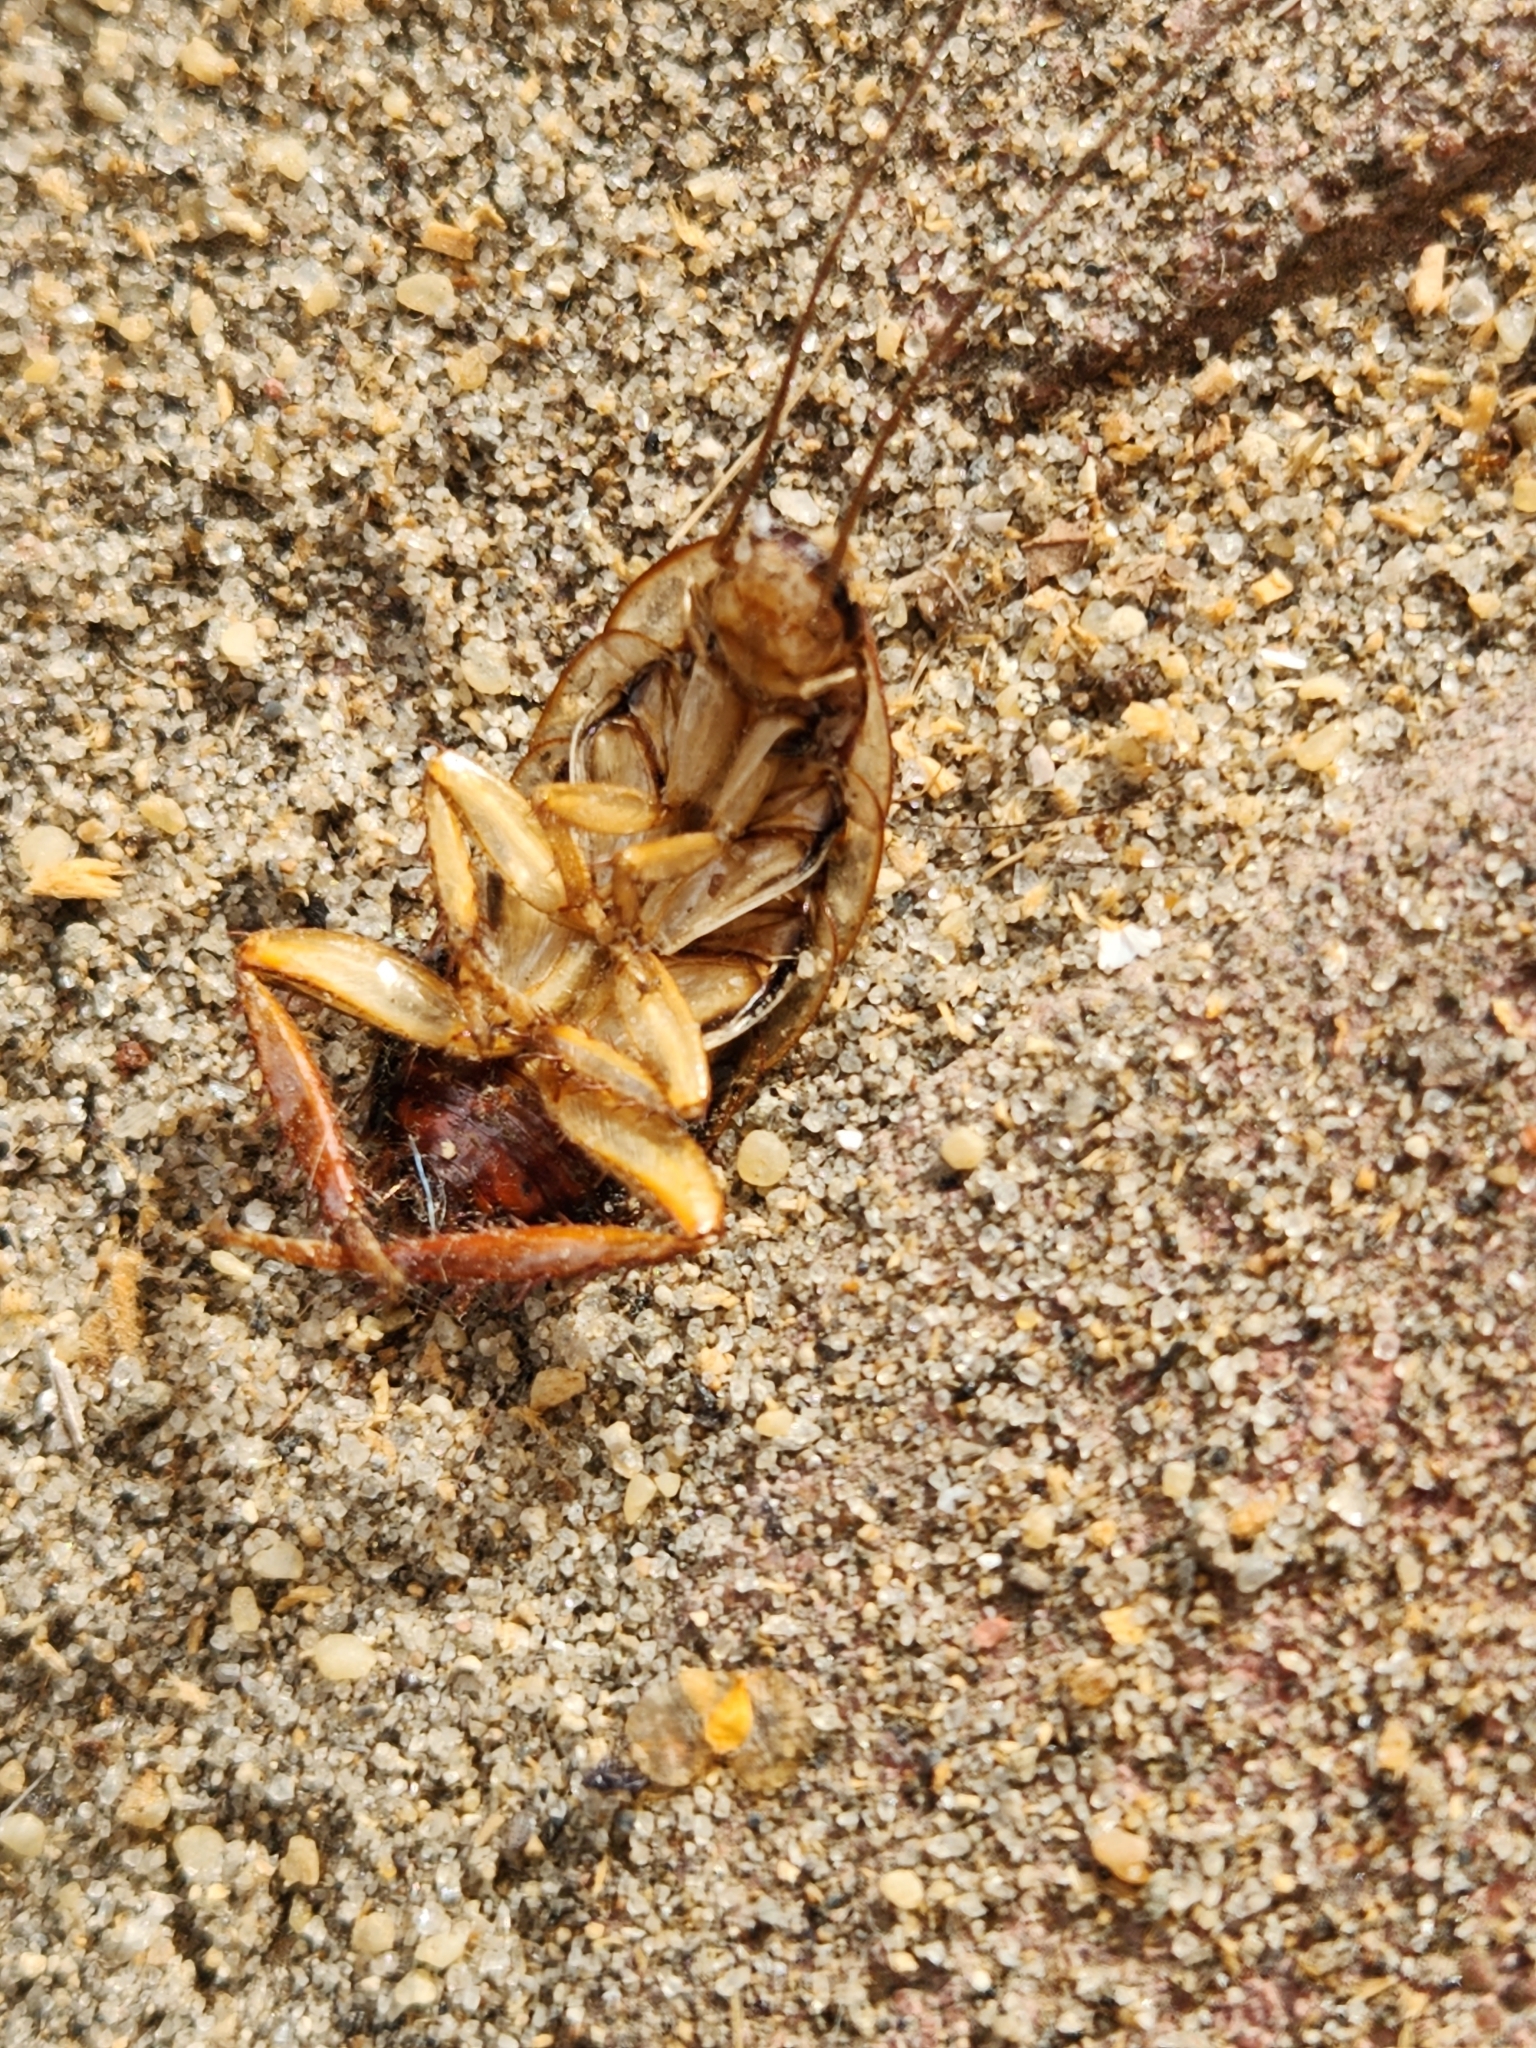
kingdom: Animalia
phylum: Arthropoda
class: Insecta
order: Blattodea
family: Blattidae
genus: Drymaplaneta
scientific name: Drymaplaneta semivitta
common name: Gisborne cockroach
